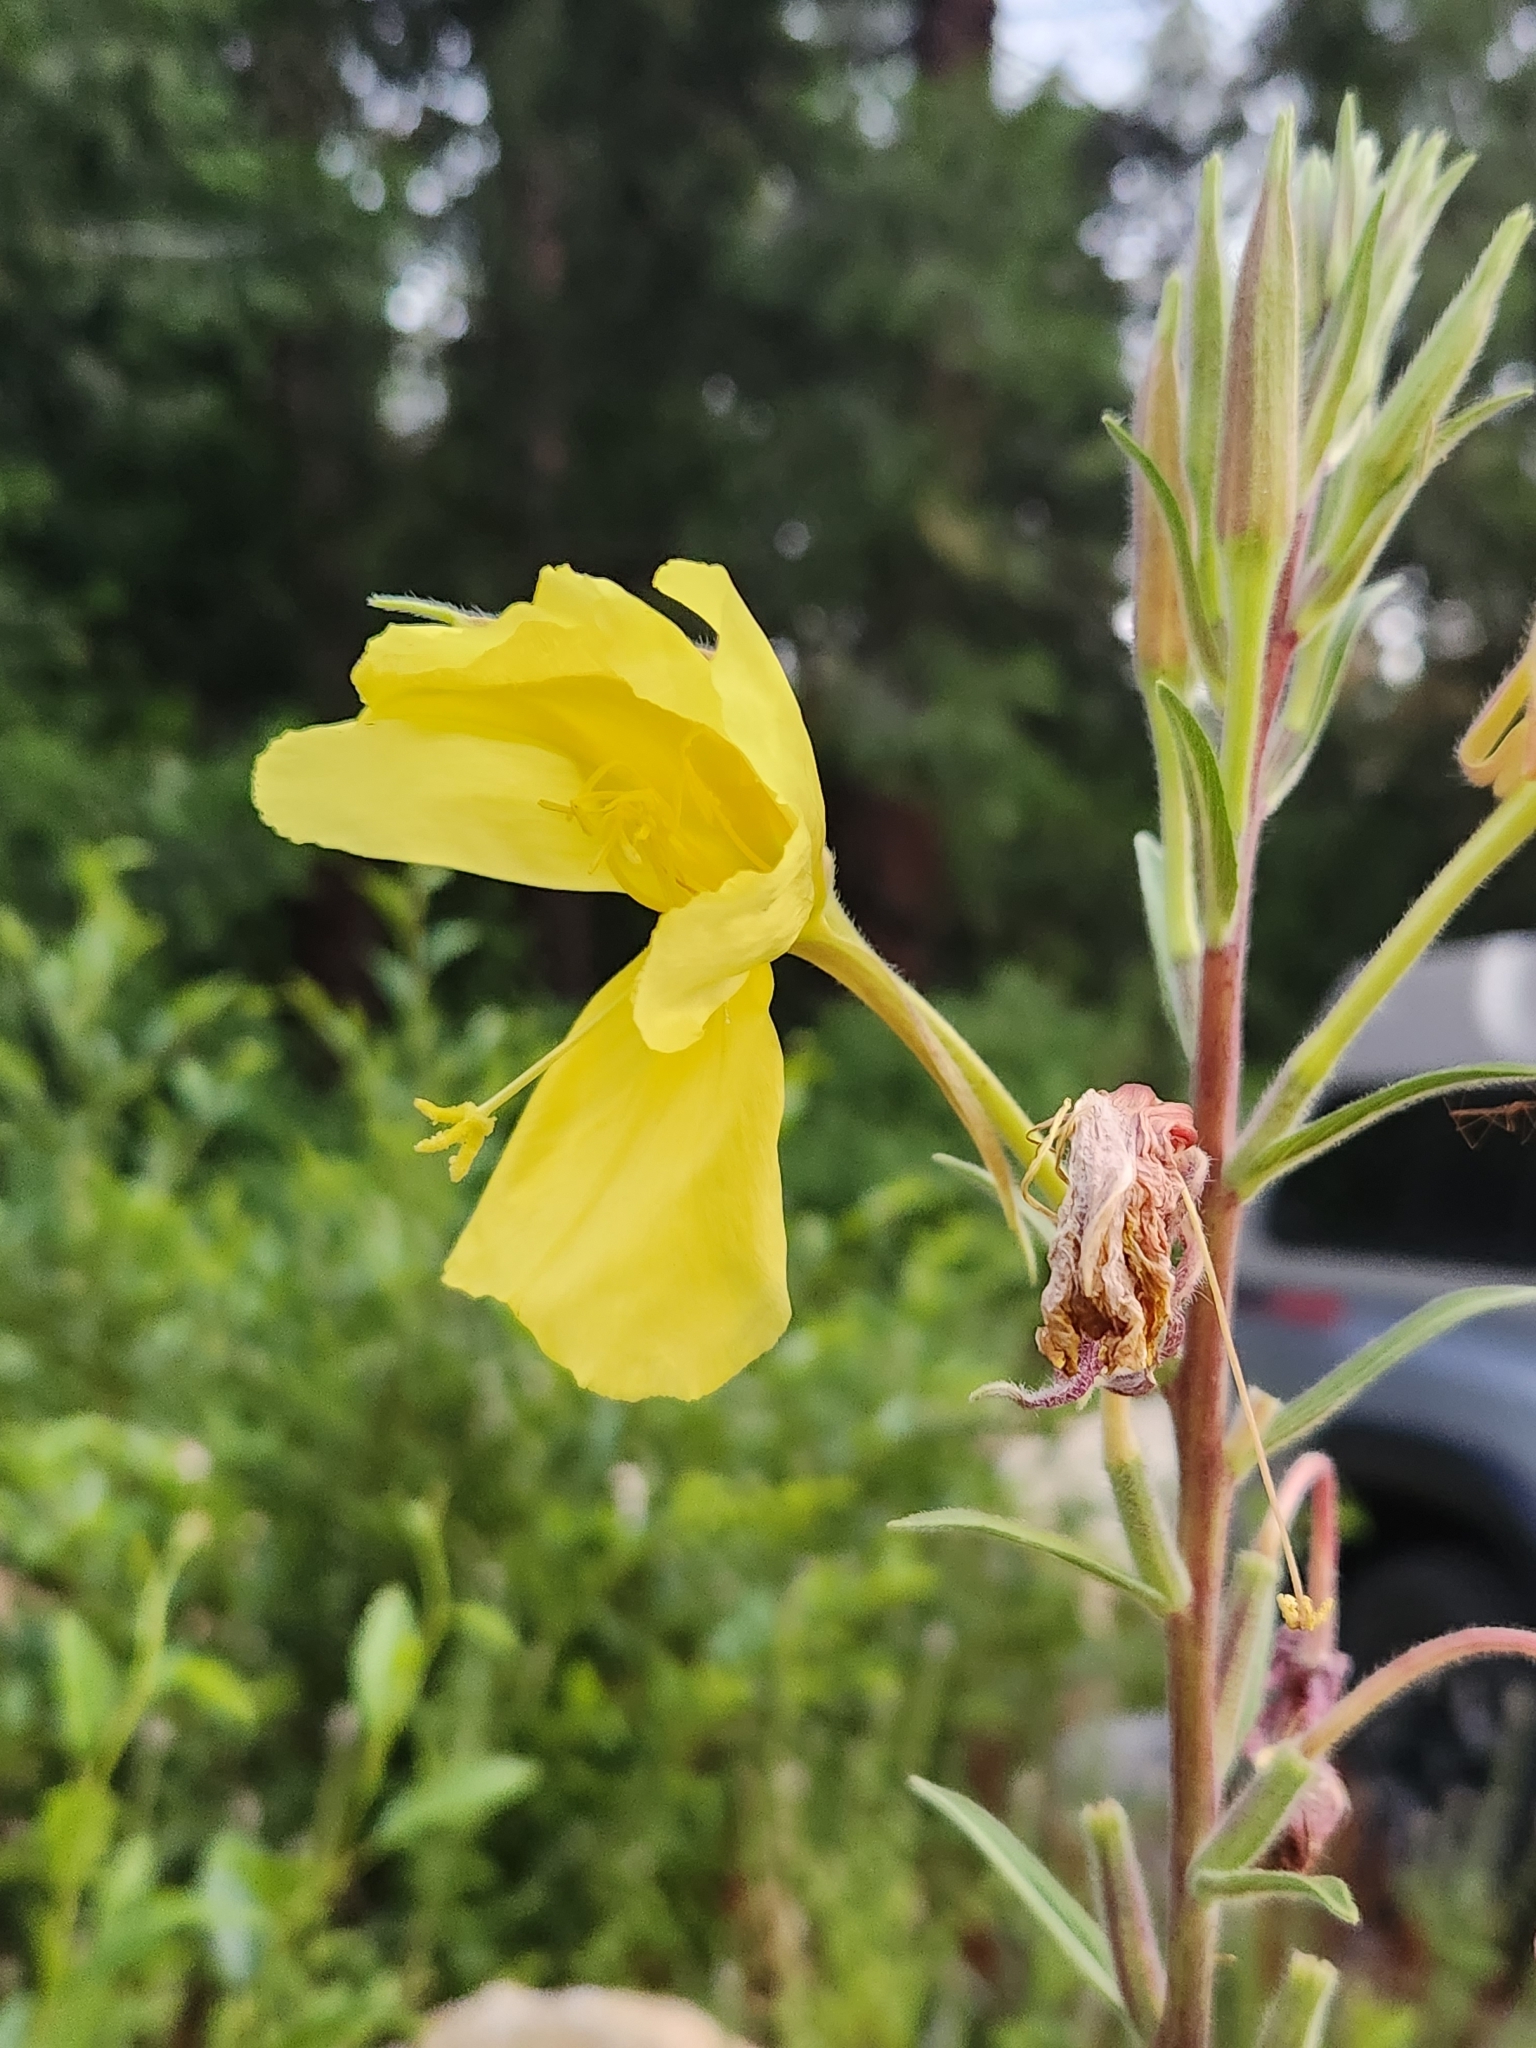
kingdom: Plantae
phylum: Tracheophyta
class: Magnoliopsida
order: Myrtales
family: Onagraceae
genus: Oenothera
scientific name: Oenothera elata
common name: Hooker's evening-primrose
